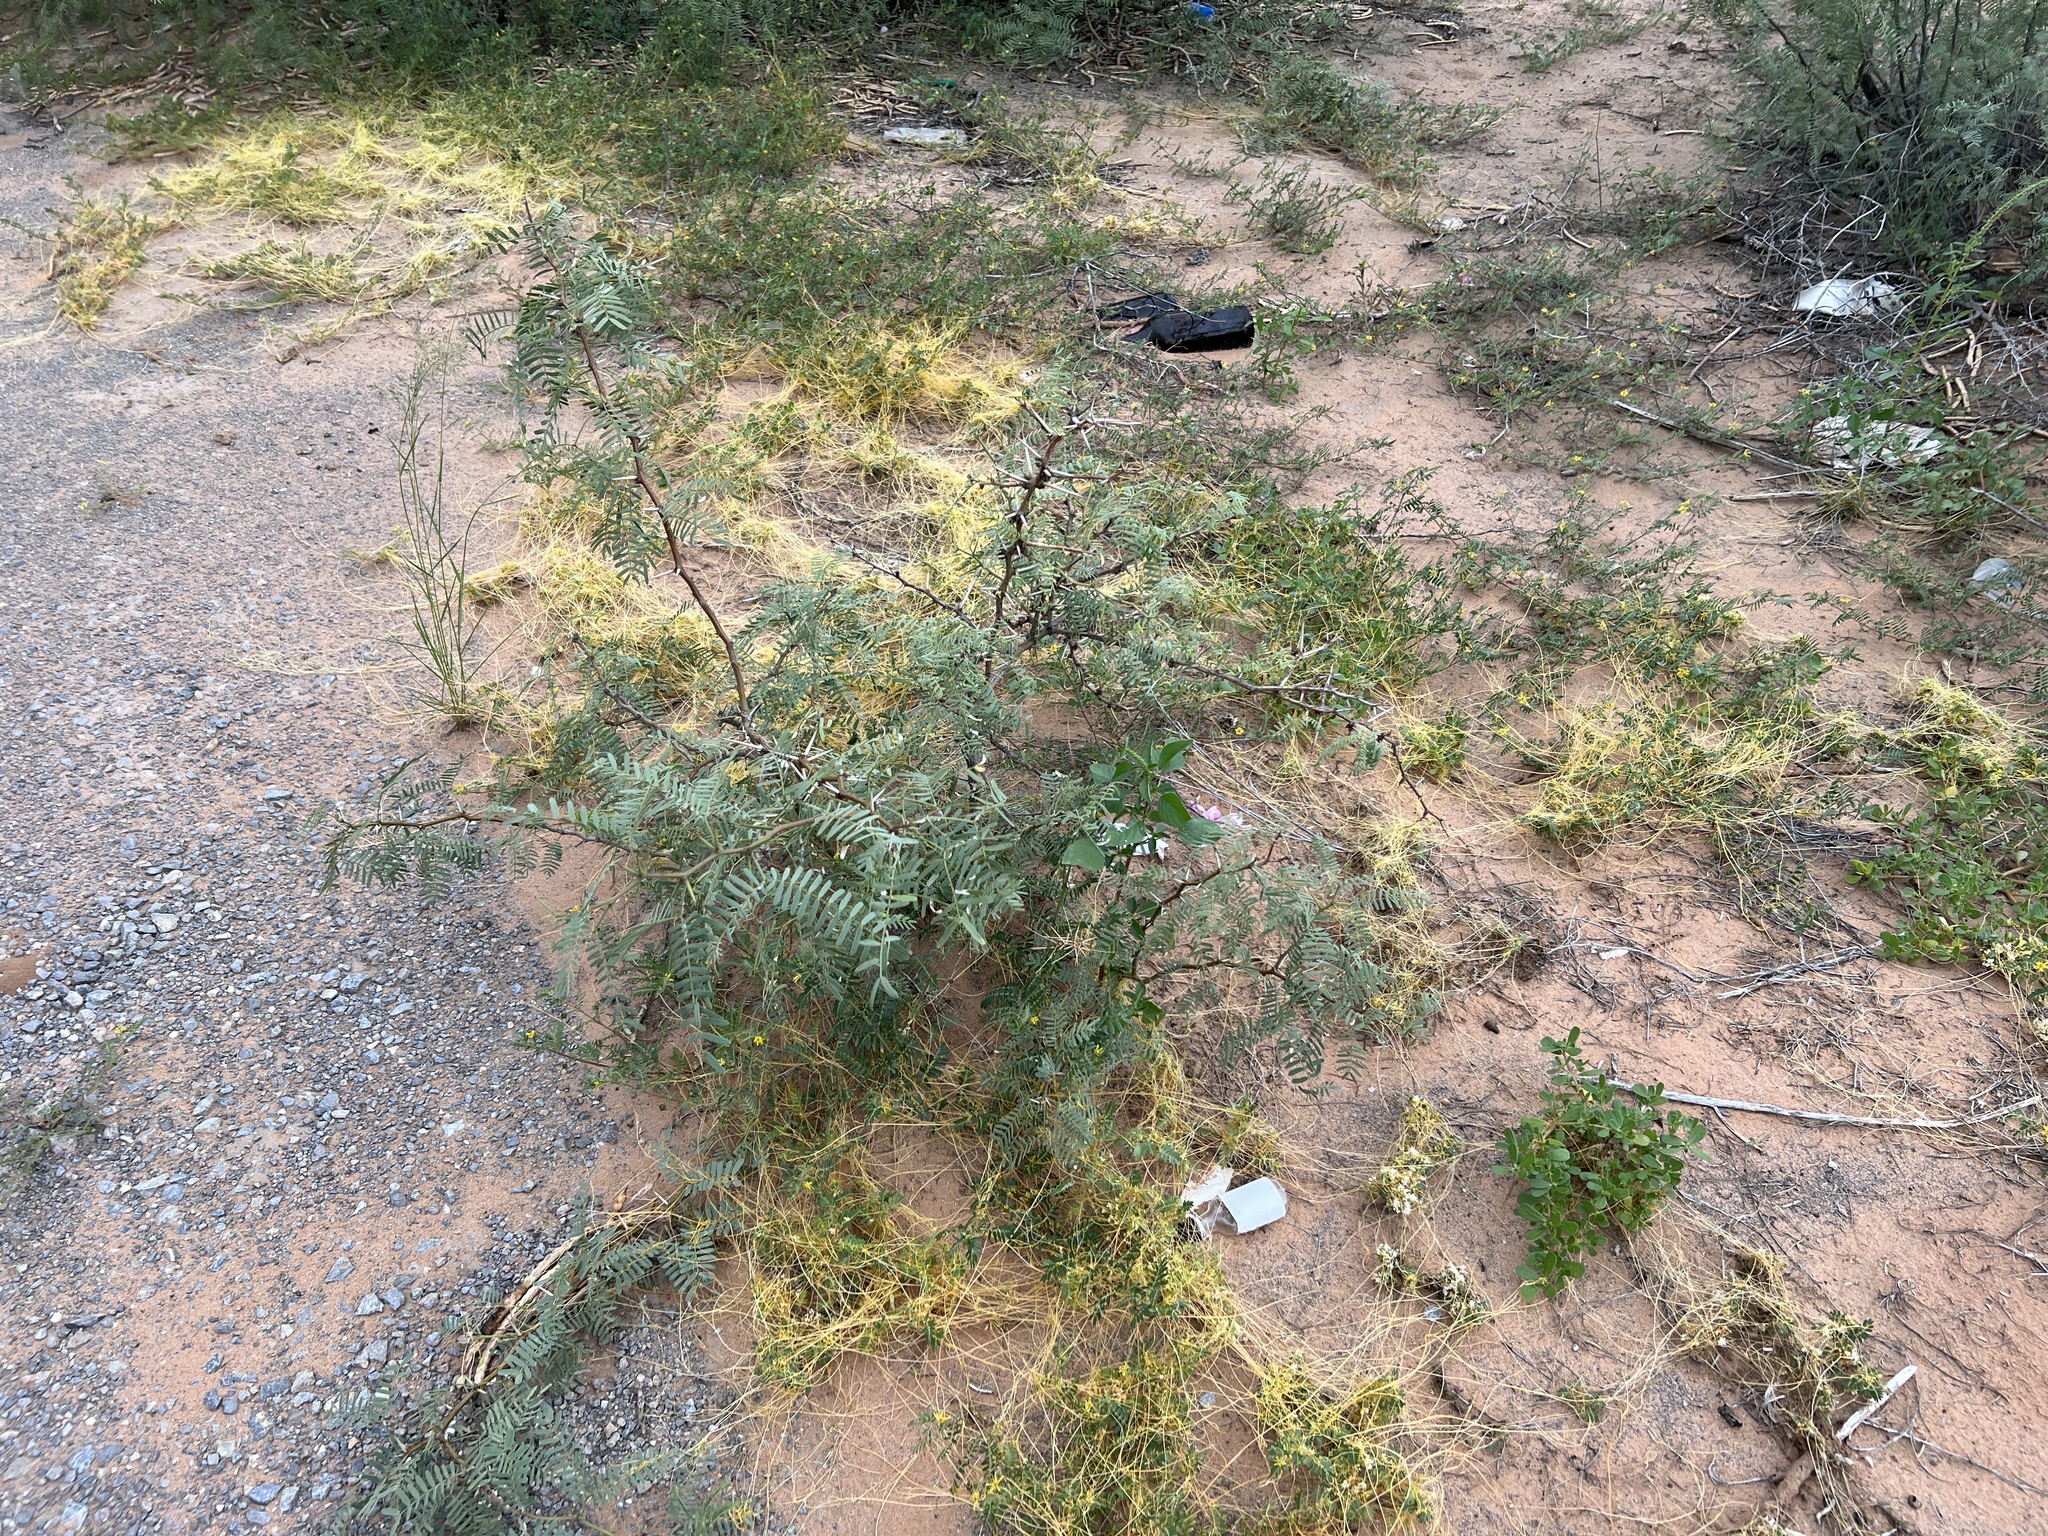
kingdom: Plantae
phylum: Tracheophyta
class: Magnoliopsida
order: Fabales
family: Fabaceae
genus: Prosopis
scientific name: Prosopis glandulosa
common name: Honey mesquite
